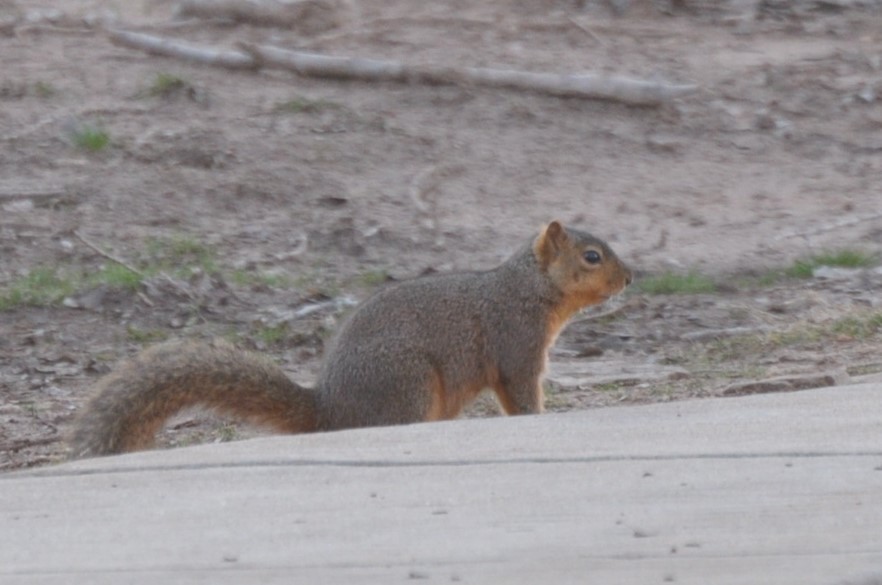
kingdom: Animalia
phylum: Chordata
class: Mammalia
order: Rodentia
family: Sciuridae
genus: Sciurus
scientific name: Sciurus niger
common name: Fox squirrel
